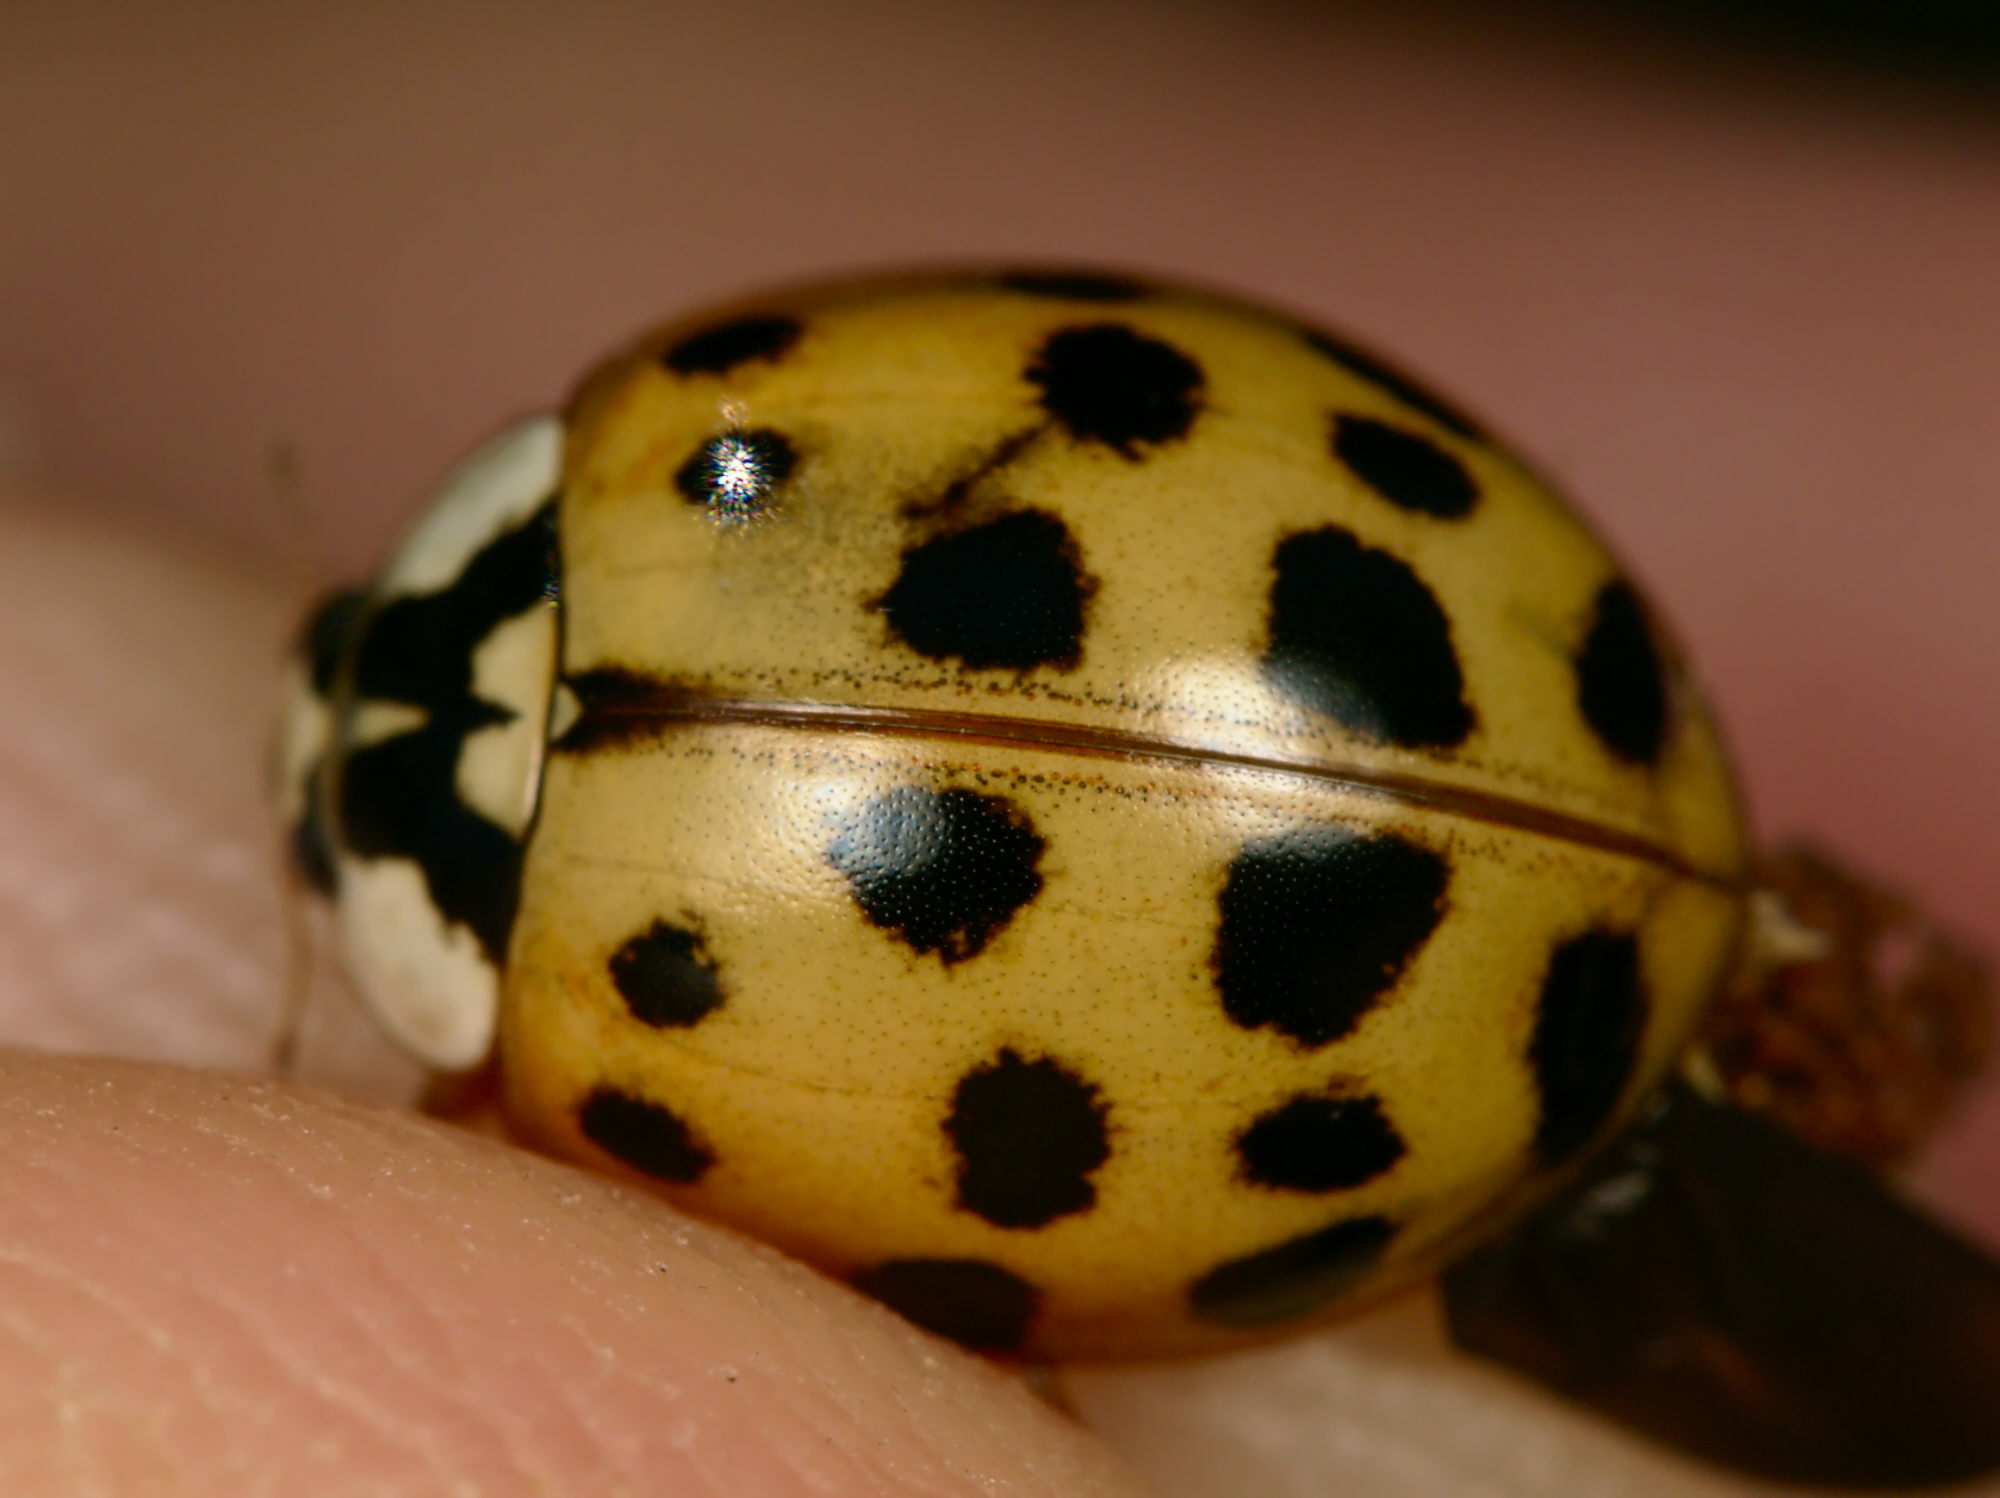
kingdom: Animalia
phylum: Arthropoda
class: Insecta
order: Coleoptera
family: Coccinellidae
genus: Harmonia
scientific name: Harmonia axyridis
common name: Harlequin ladybird
